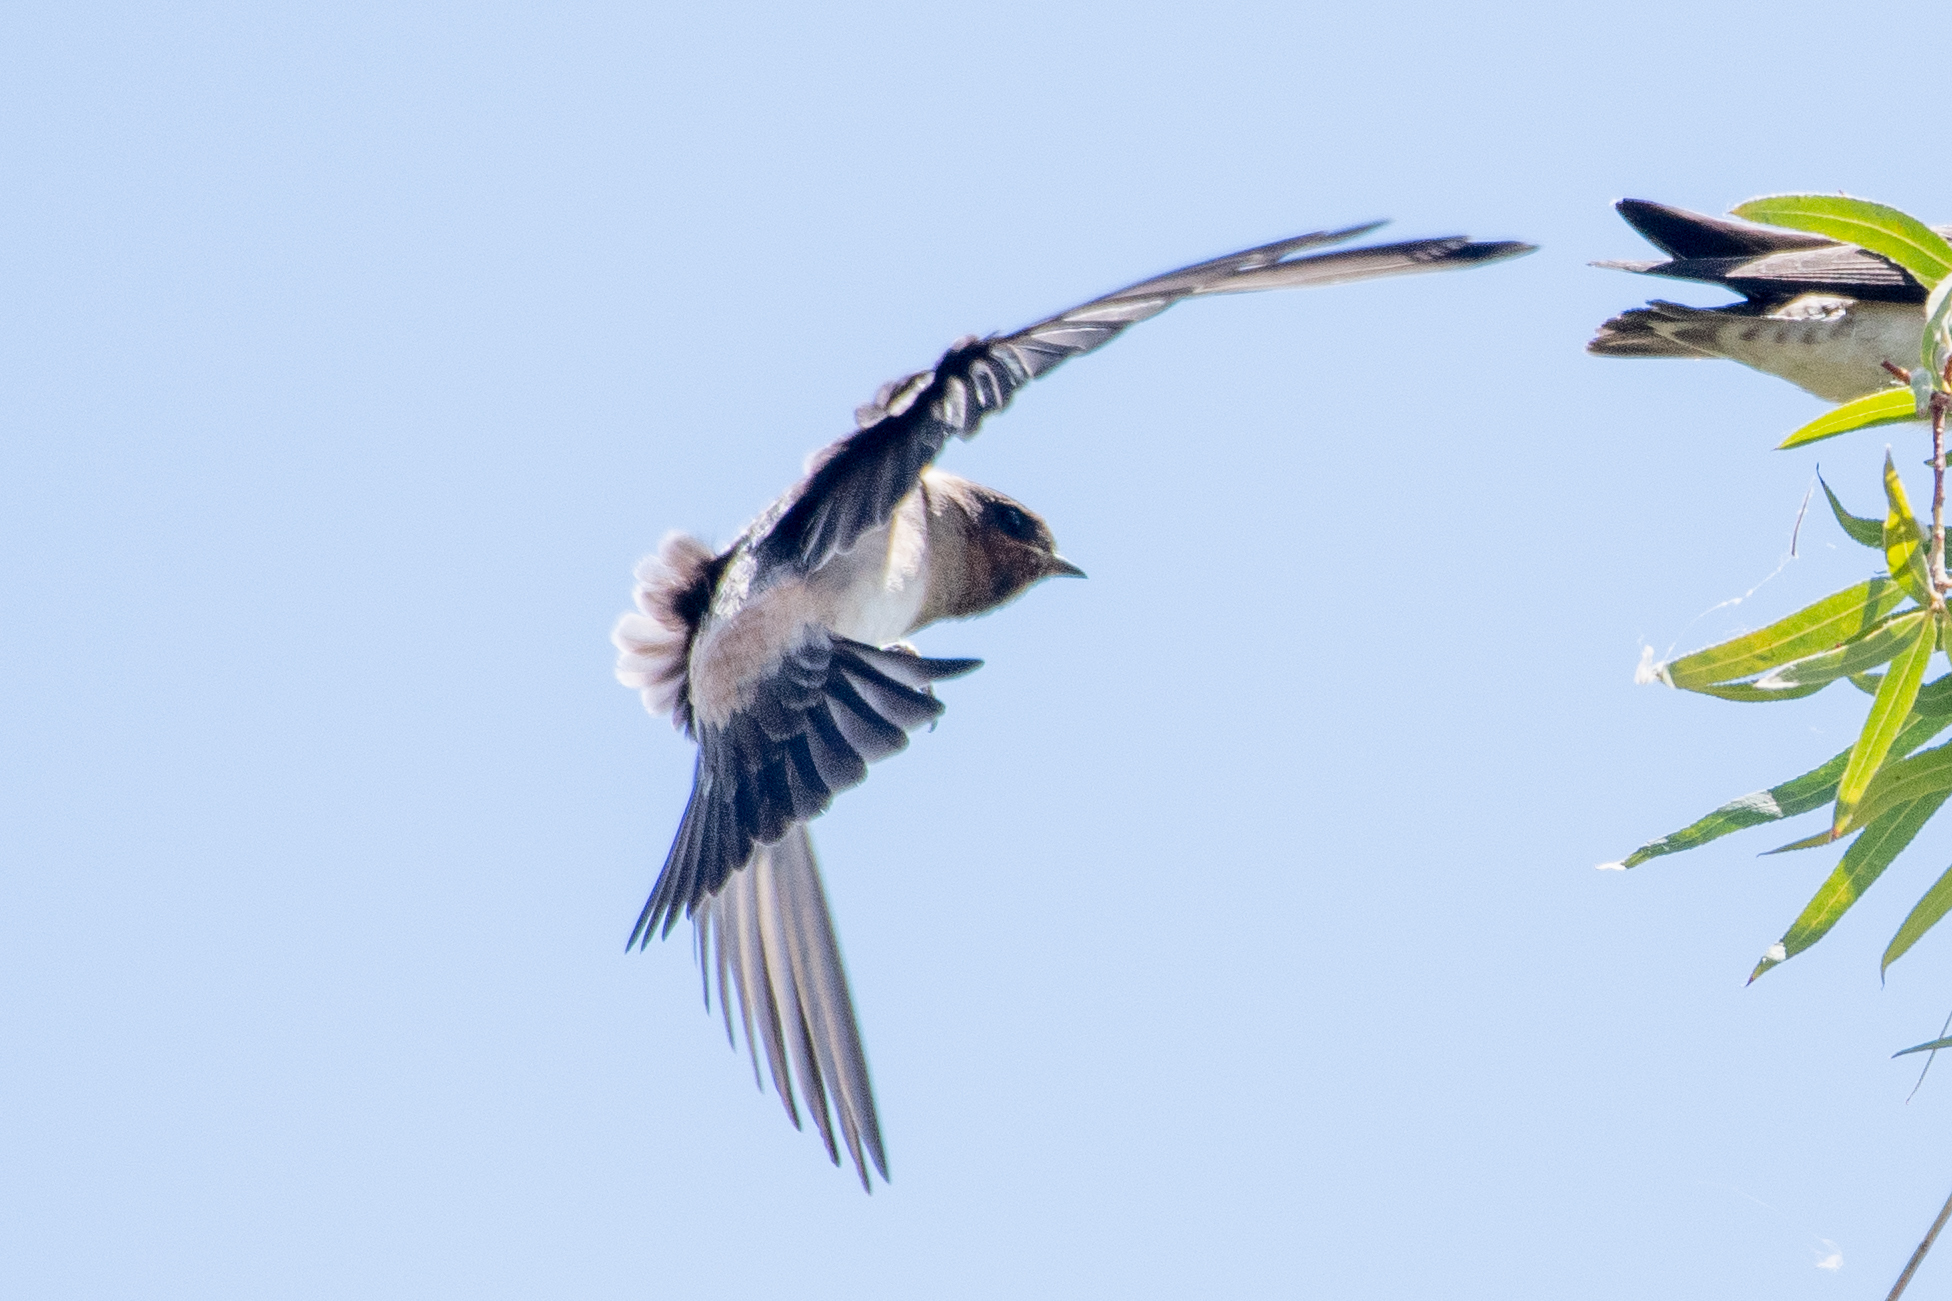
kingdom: Animalia
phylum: Chordata
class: Aves
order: Passeriformes
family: Hirundinidae
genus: Petrochelidon
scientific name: Petrochelidon pyrrhonota
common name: American cliff swallow
